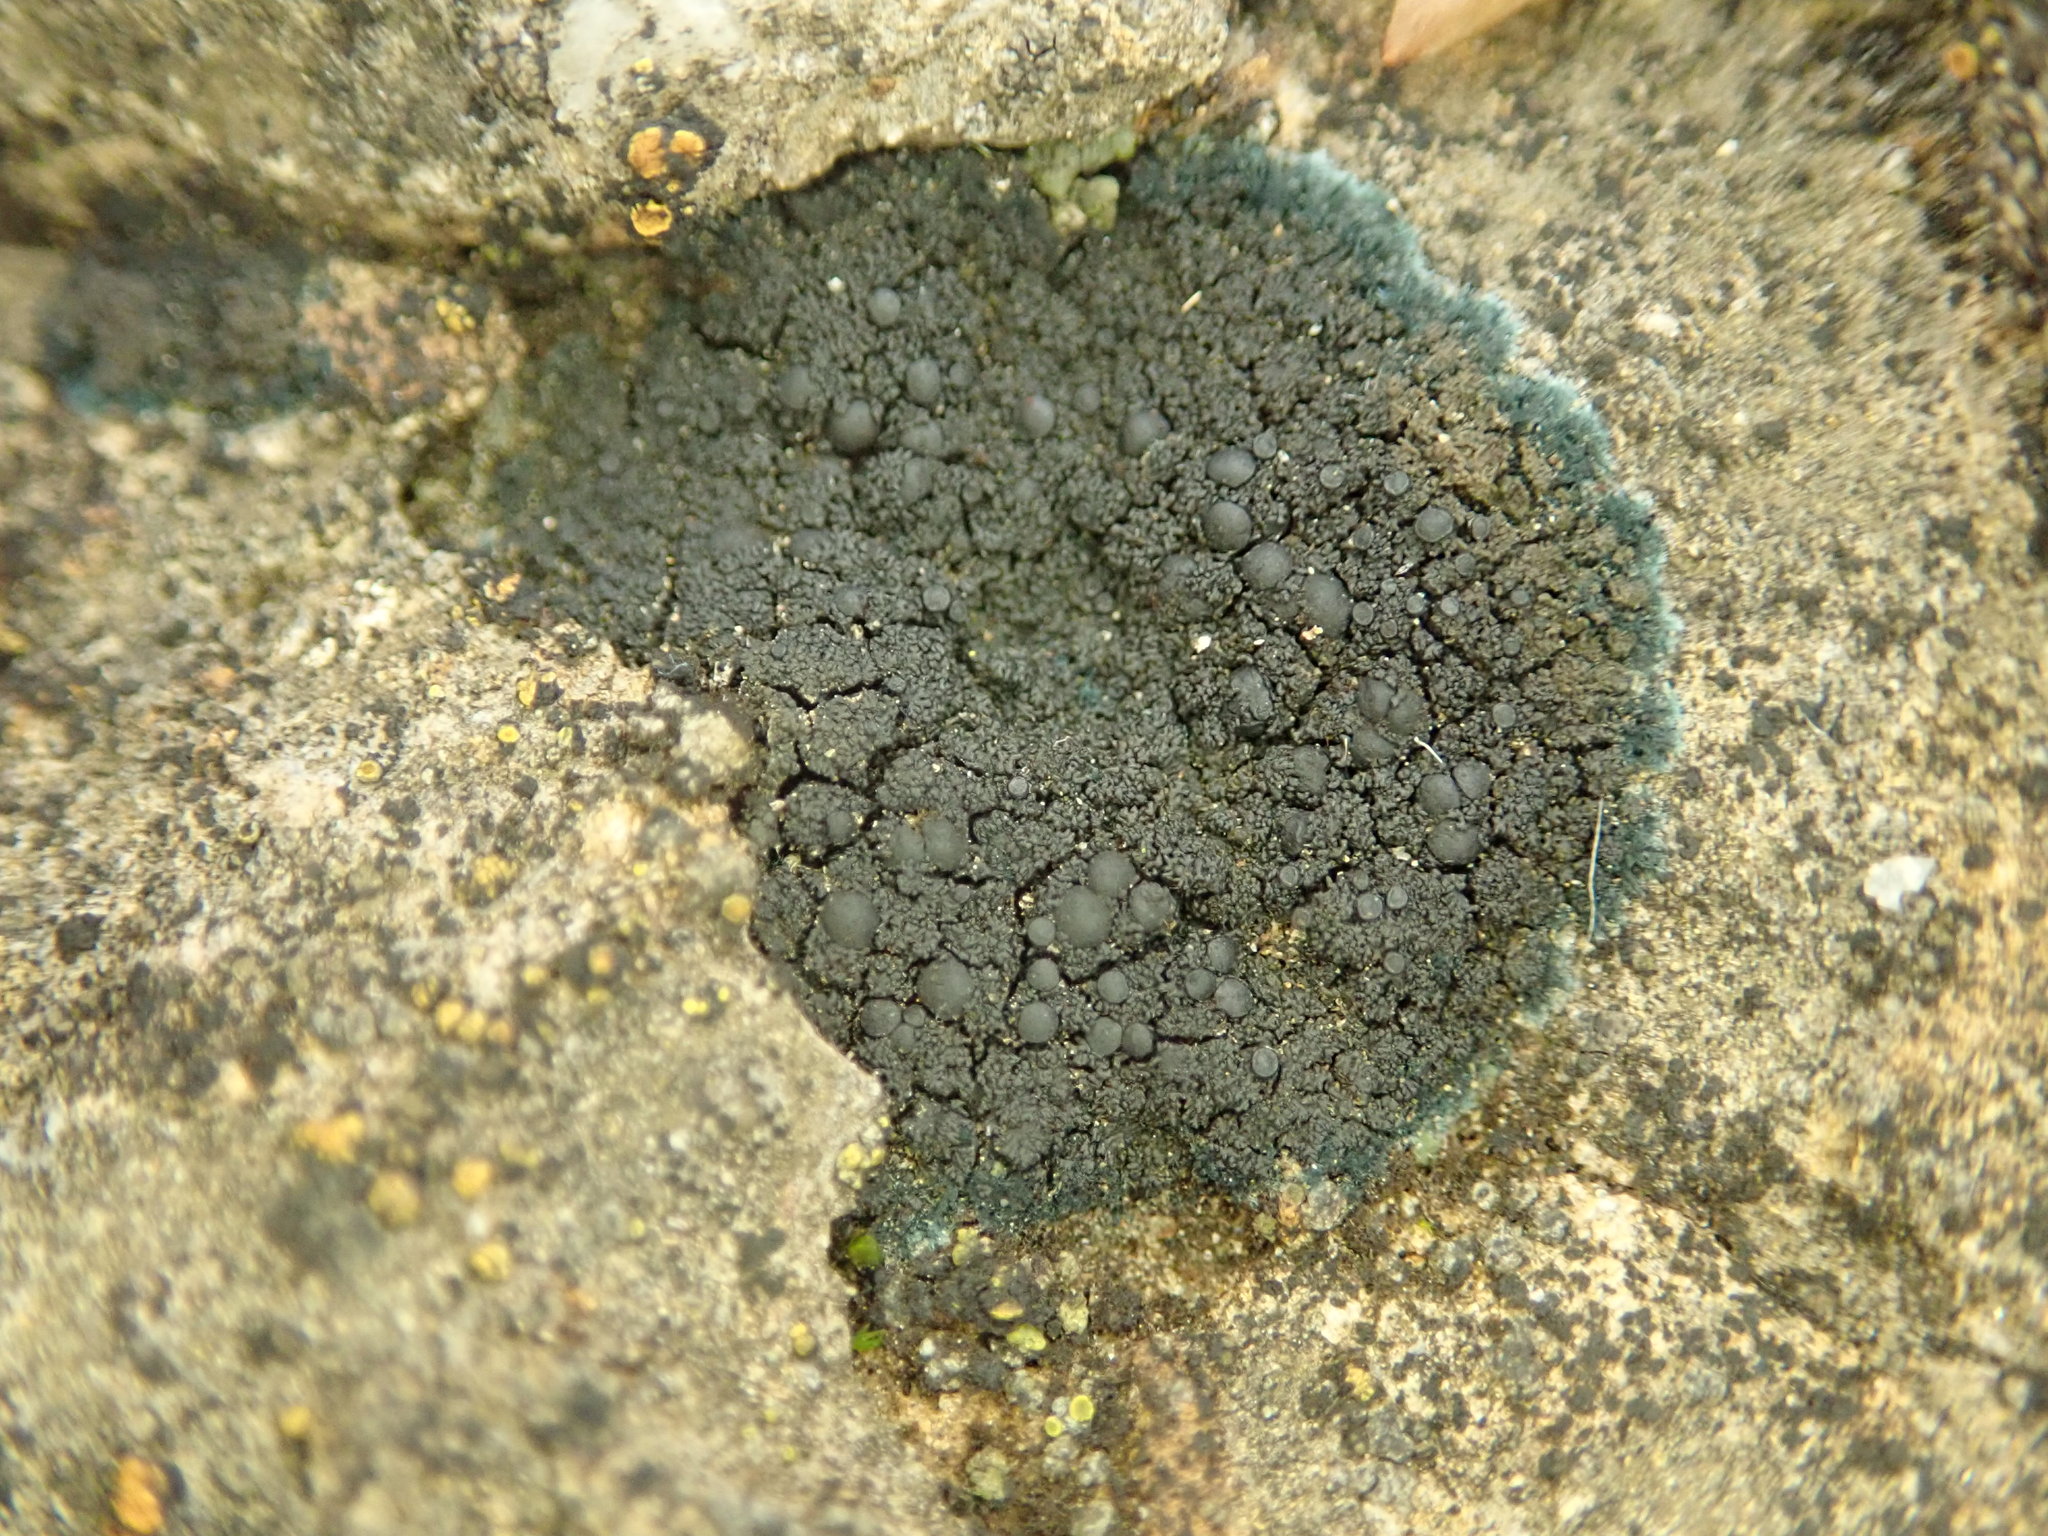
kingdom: Fungi
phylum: Ascomycota
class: Lecanoromycetes
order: Peltigerales
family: Placynthiaceae
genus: Placynthium
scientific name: Placynthium nigrum
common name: Blackthread lichen
